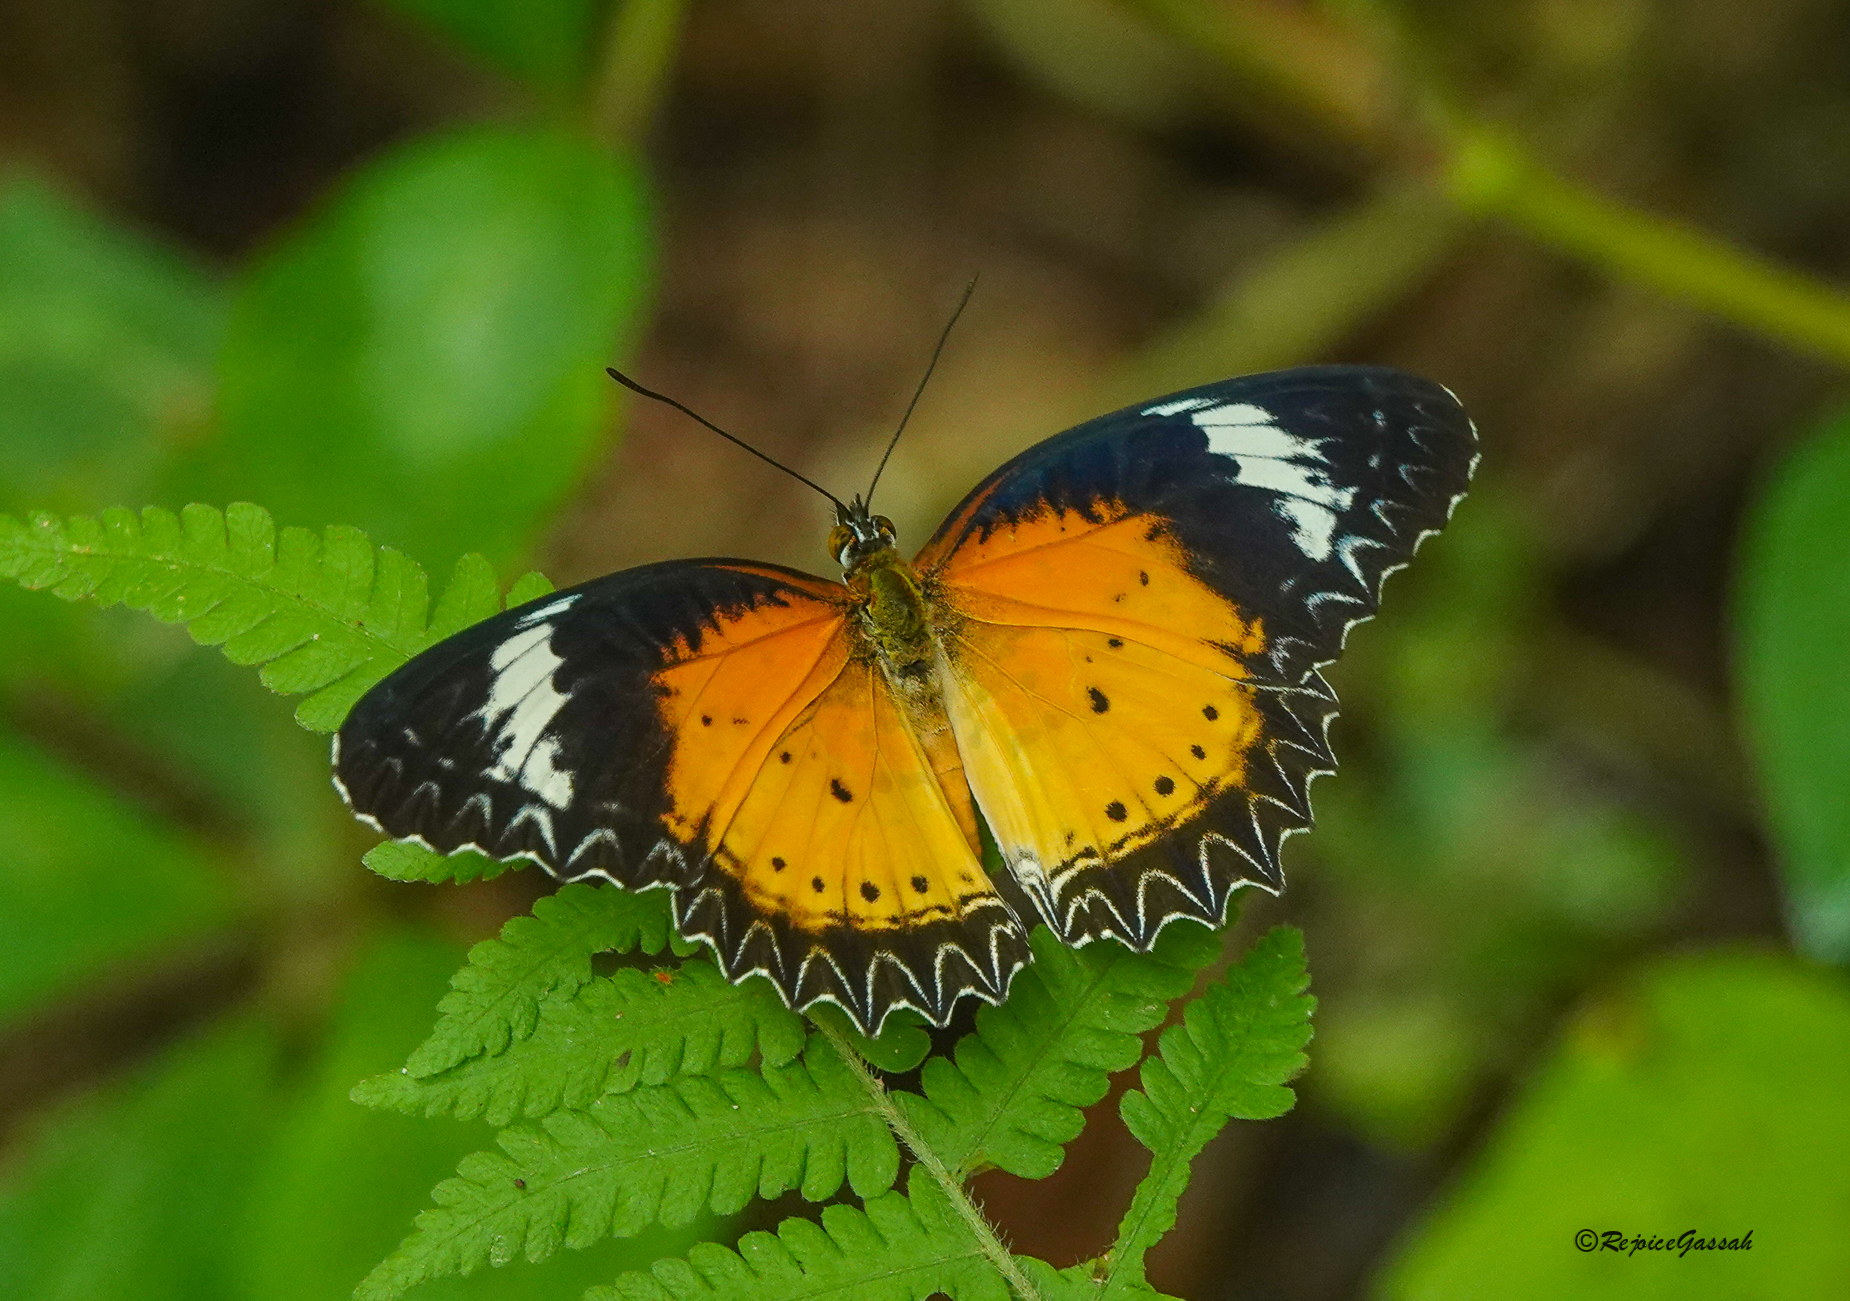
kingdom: Animalia
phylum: Arthropoda
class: Insecta
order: Lepidoptera
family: Nymphalidae
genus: Cethosia
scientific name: Cethosia cyane
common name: Leopard lacewing butterfly
